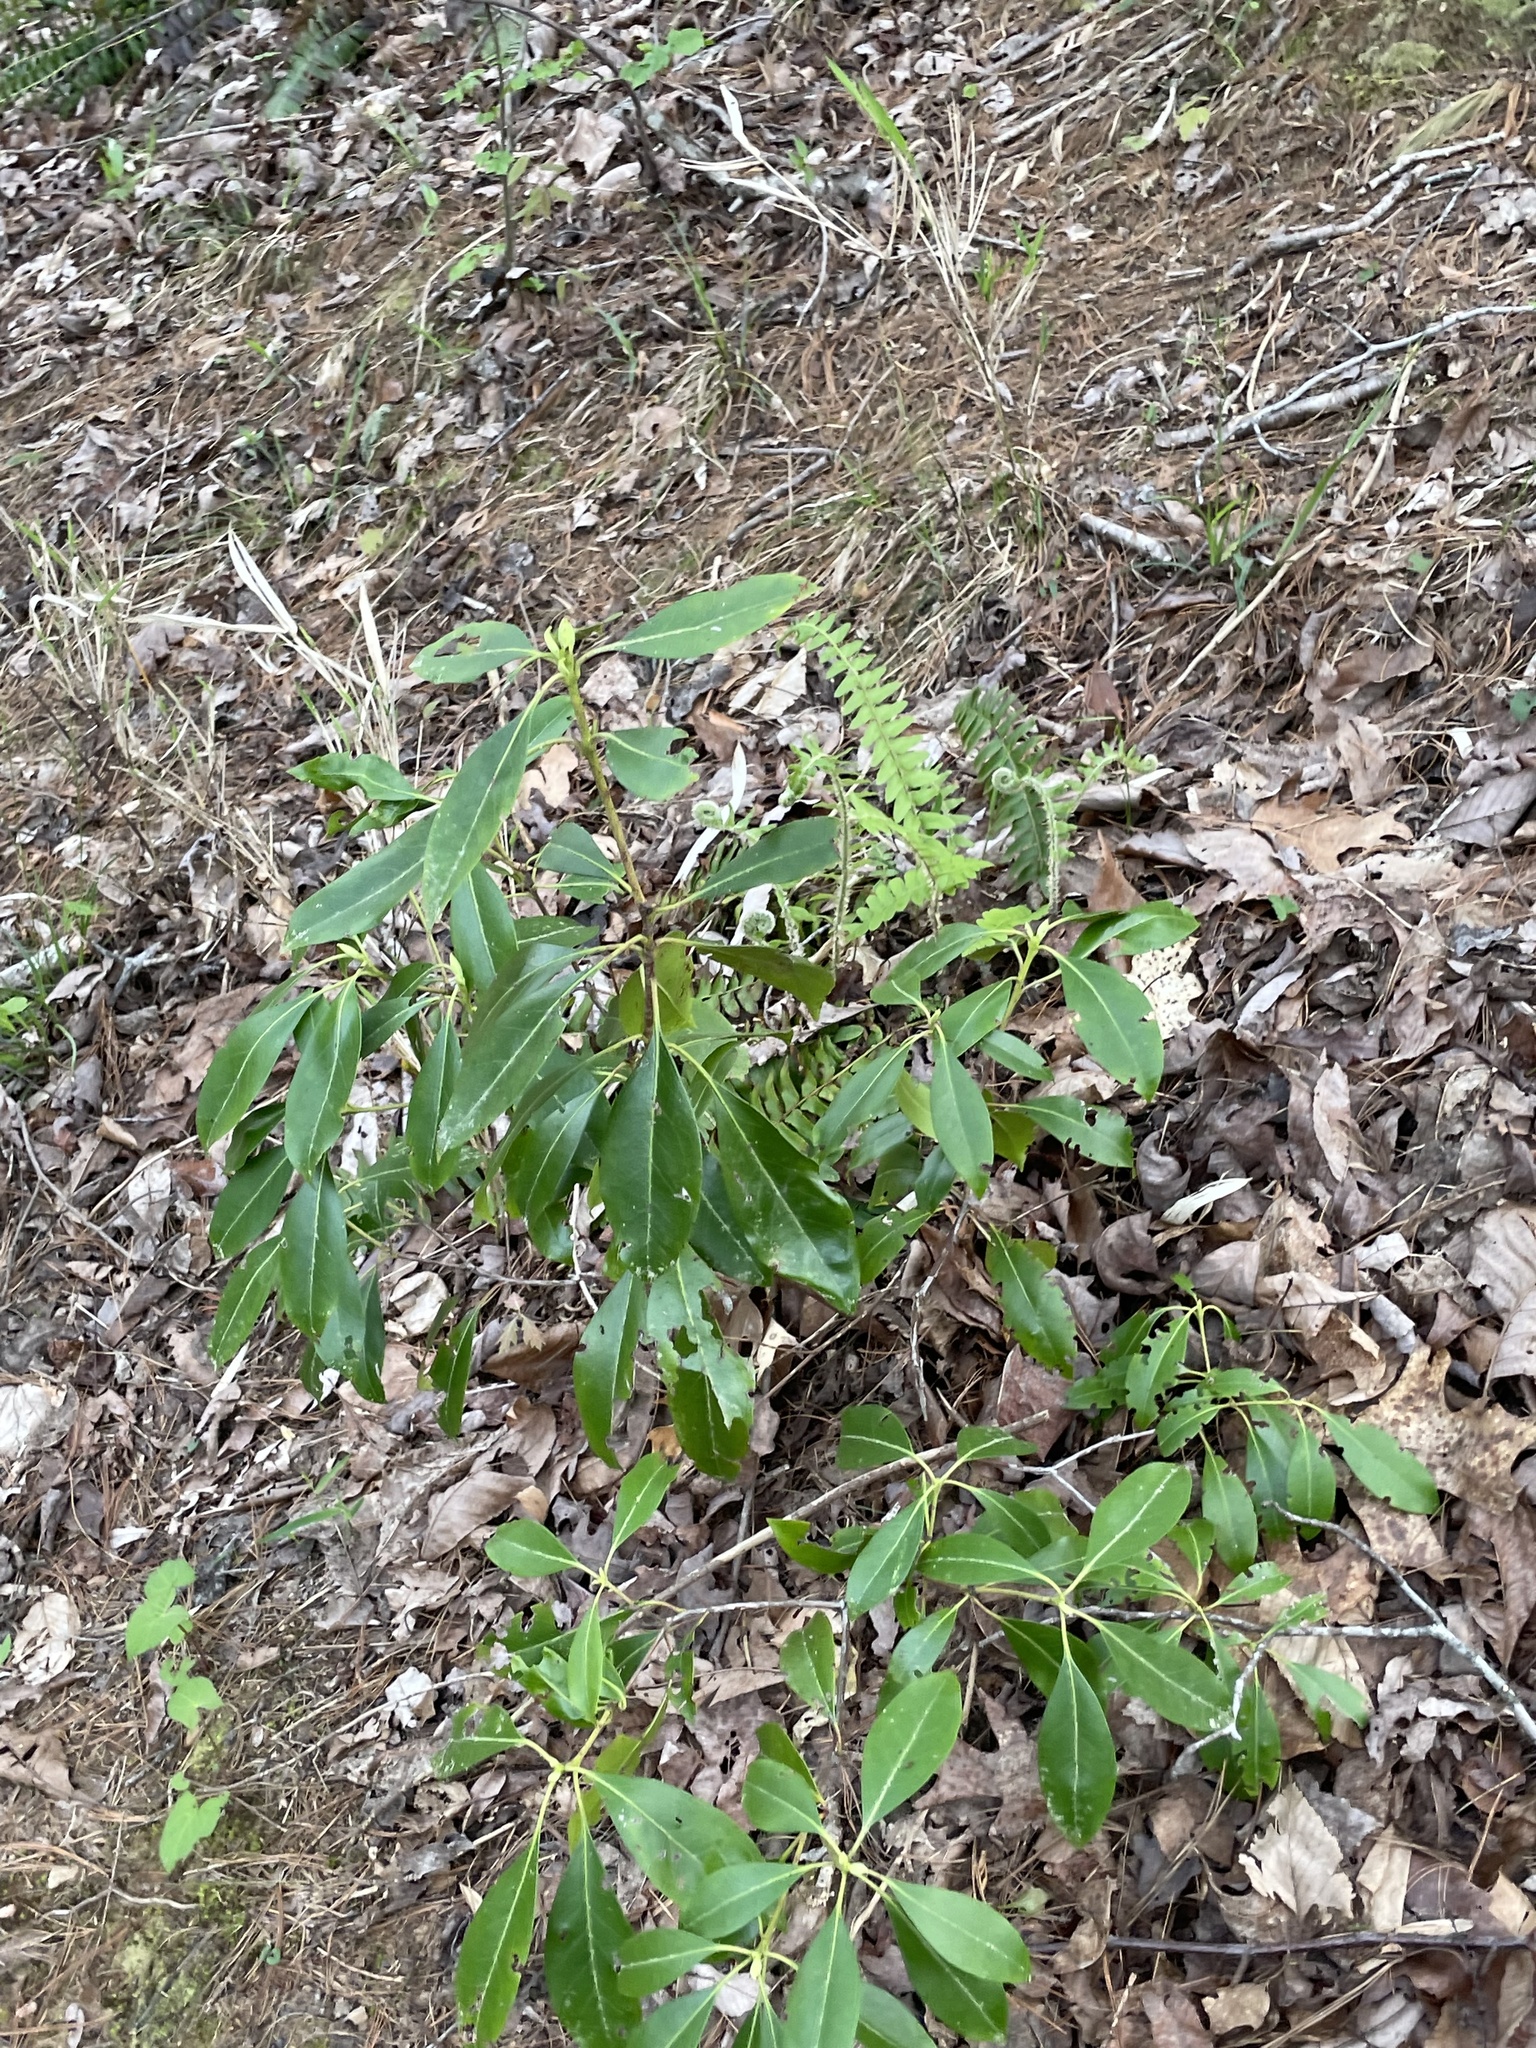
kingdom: Plantae
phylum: Tracheophyta
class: Magnoliopsida
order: Ericales
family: Ericaceae
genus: Kalmia
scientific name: Kalmia latifolia
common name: Mountain-laurel
